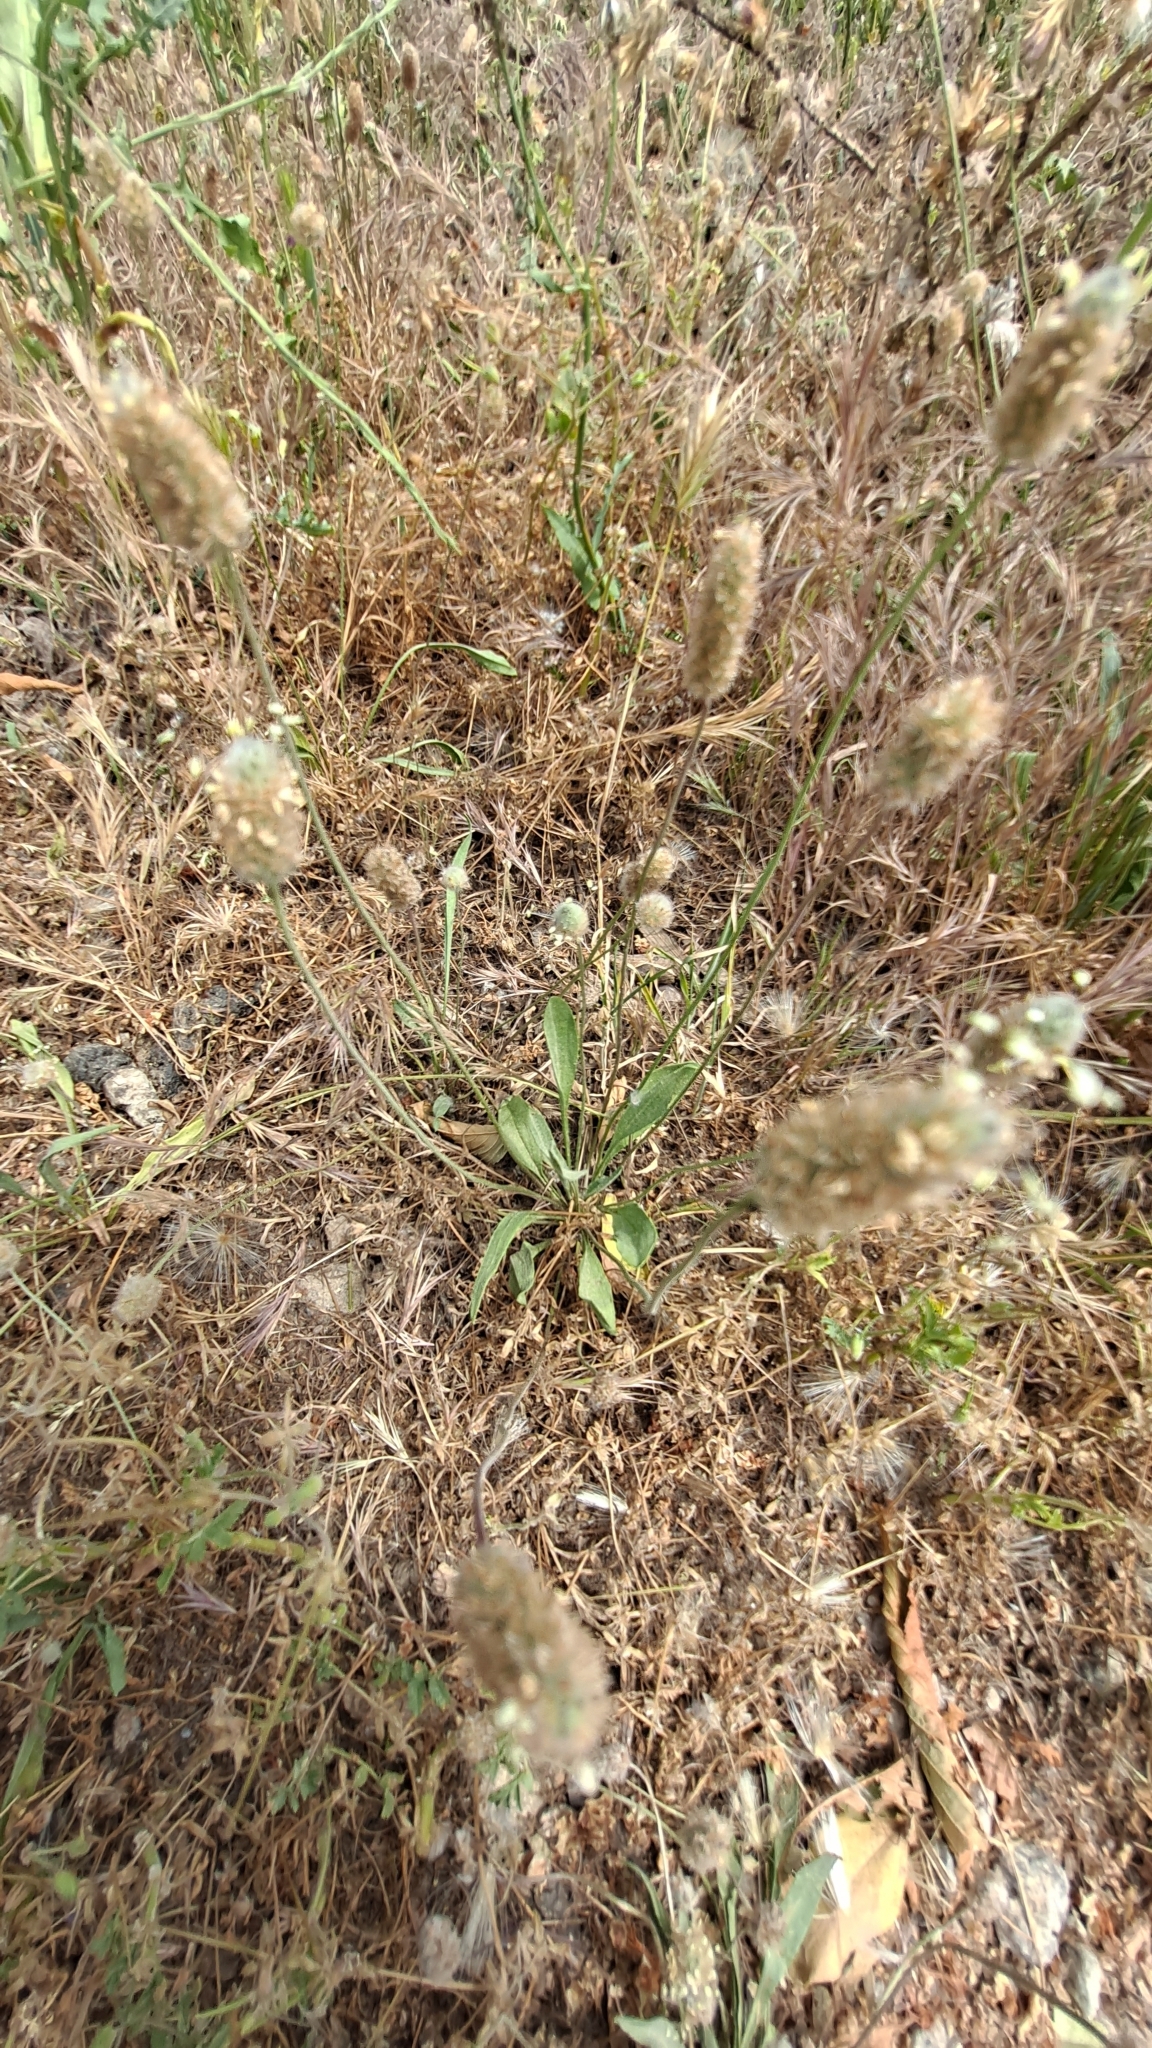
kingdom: Plantae
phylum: Tracheophyta
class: Magnoliopsida
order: Lamiales
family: Plantaginaceae
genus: Plantago
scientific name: Plantago lagopus
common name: Hare-foot plantain
